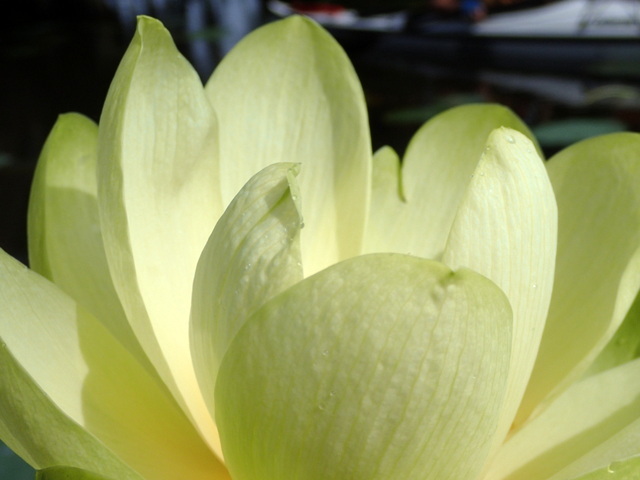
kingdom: Plantae
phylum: Tracheophyta
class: Magnoliopsida
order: Proteales
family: Nelumbonaceae
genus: Nelumbo
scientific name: Nelumbo lutea
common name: American lotus
